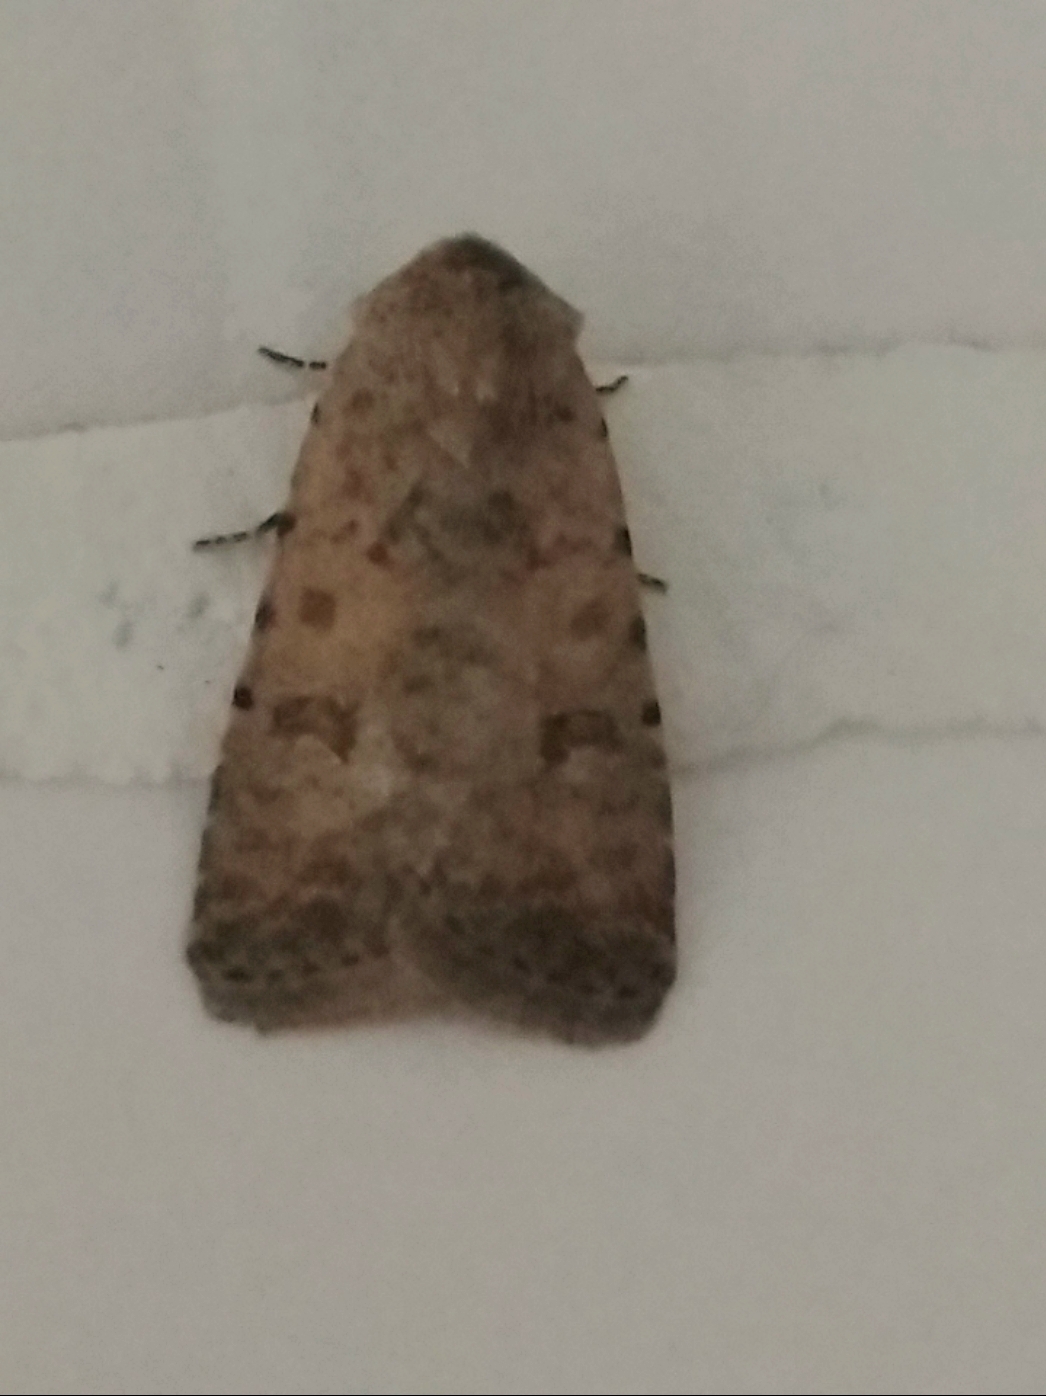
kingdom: Animalia
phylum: Arthropoda
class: Insecta
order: Lepidoptera
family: Noctuidae
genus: Caradrina
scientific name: Caradrina clavipalpis
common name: Pale mottled willow
